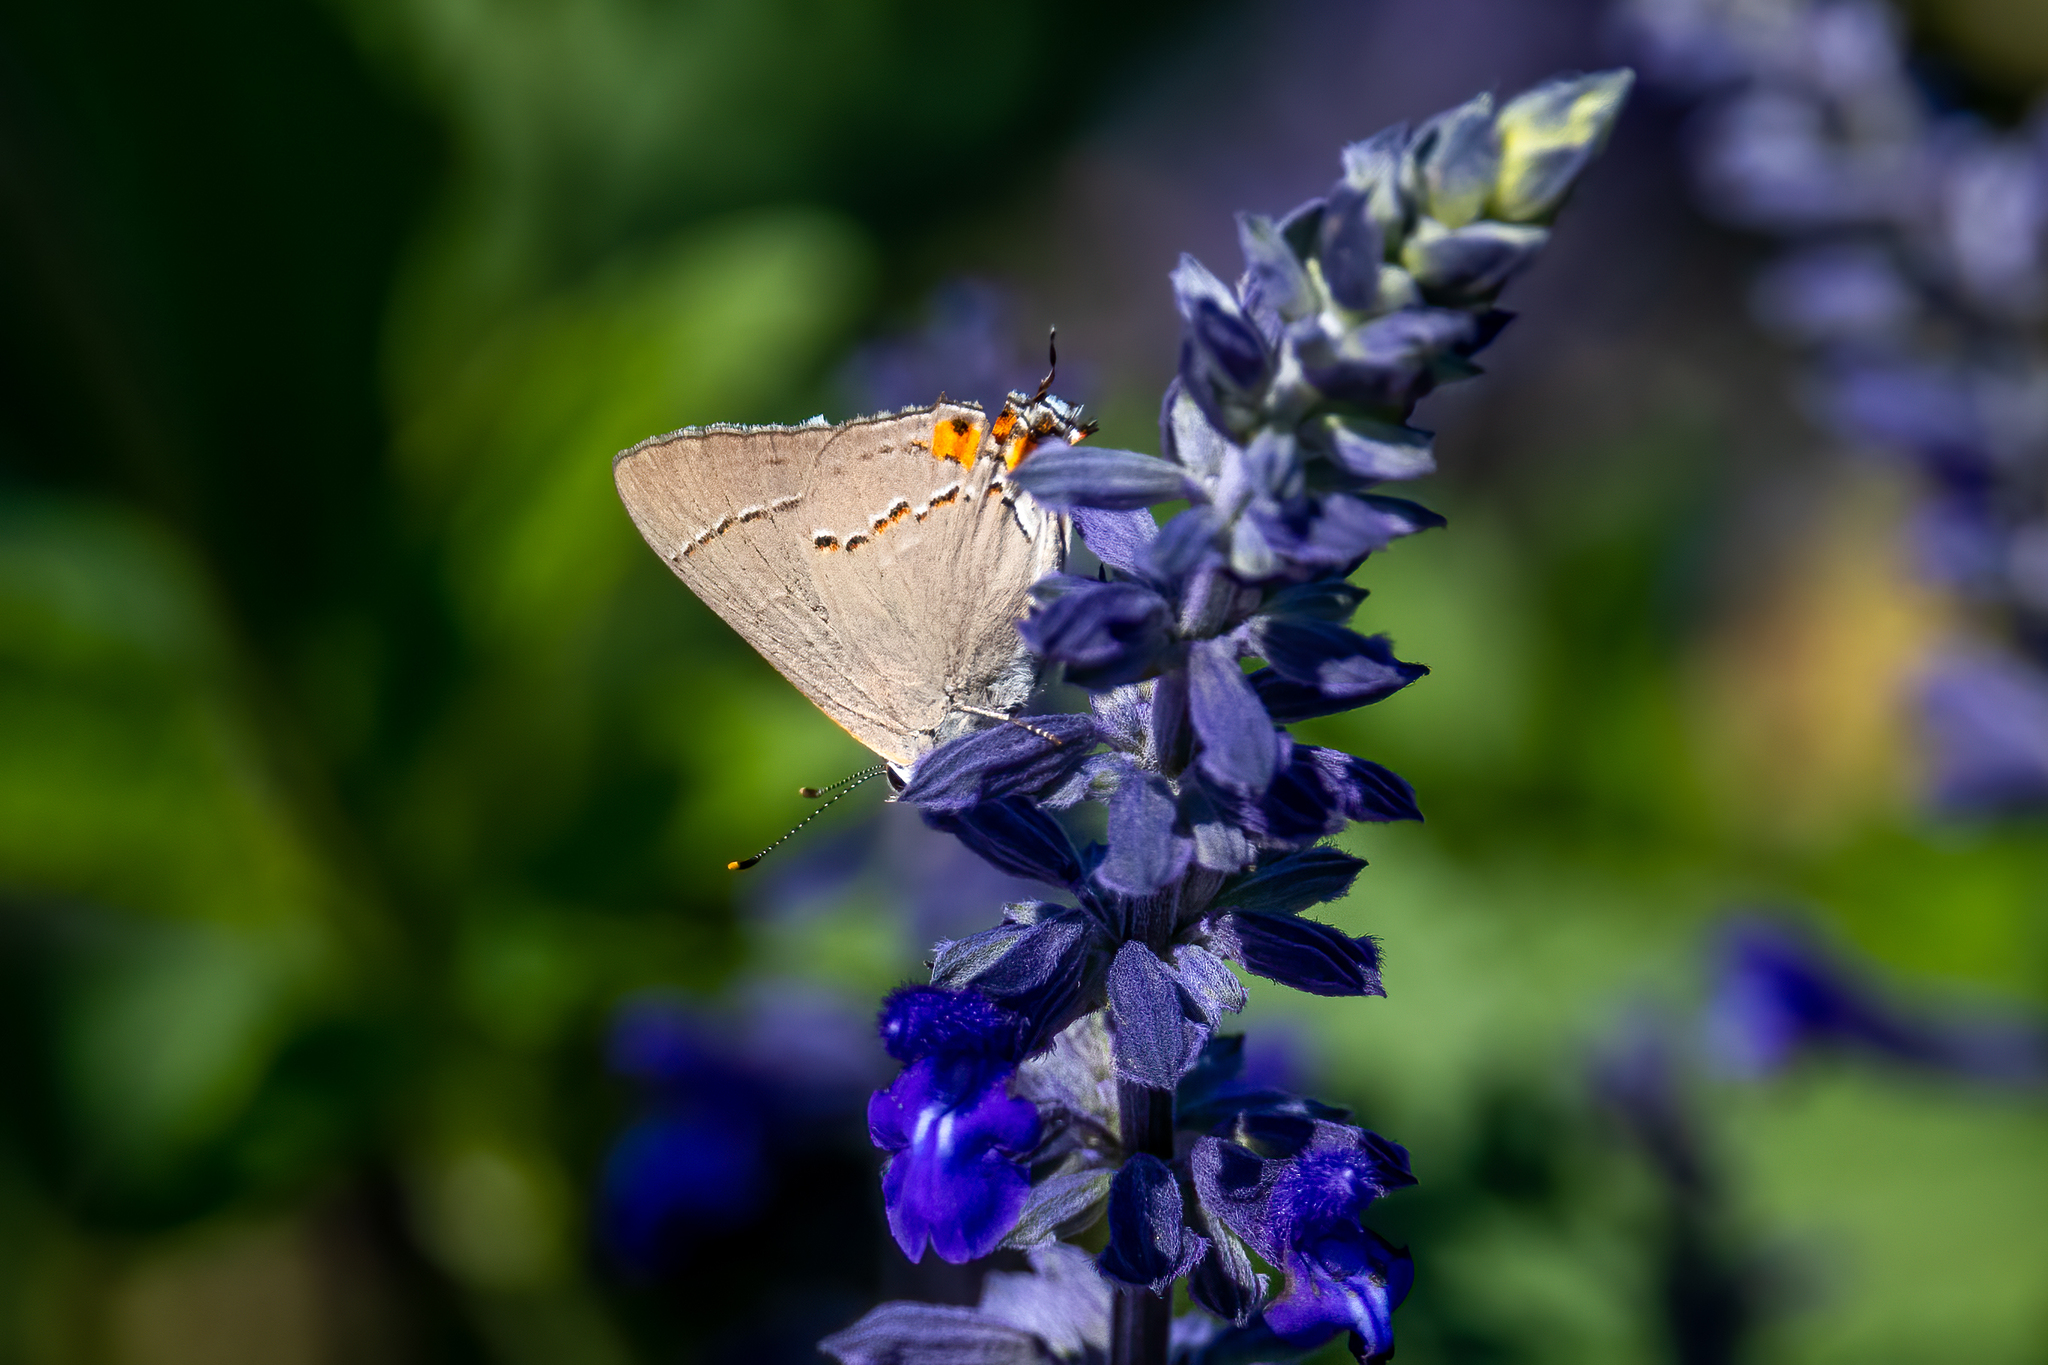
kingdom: Animalia
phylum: Arthropoda
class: Insecta
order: Lepidoptera
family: Lycaenidae
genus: Strymon
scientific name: Strymon melinus
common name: Gray hairstreak
